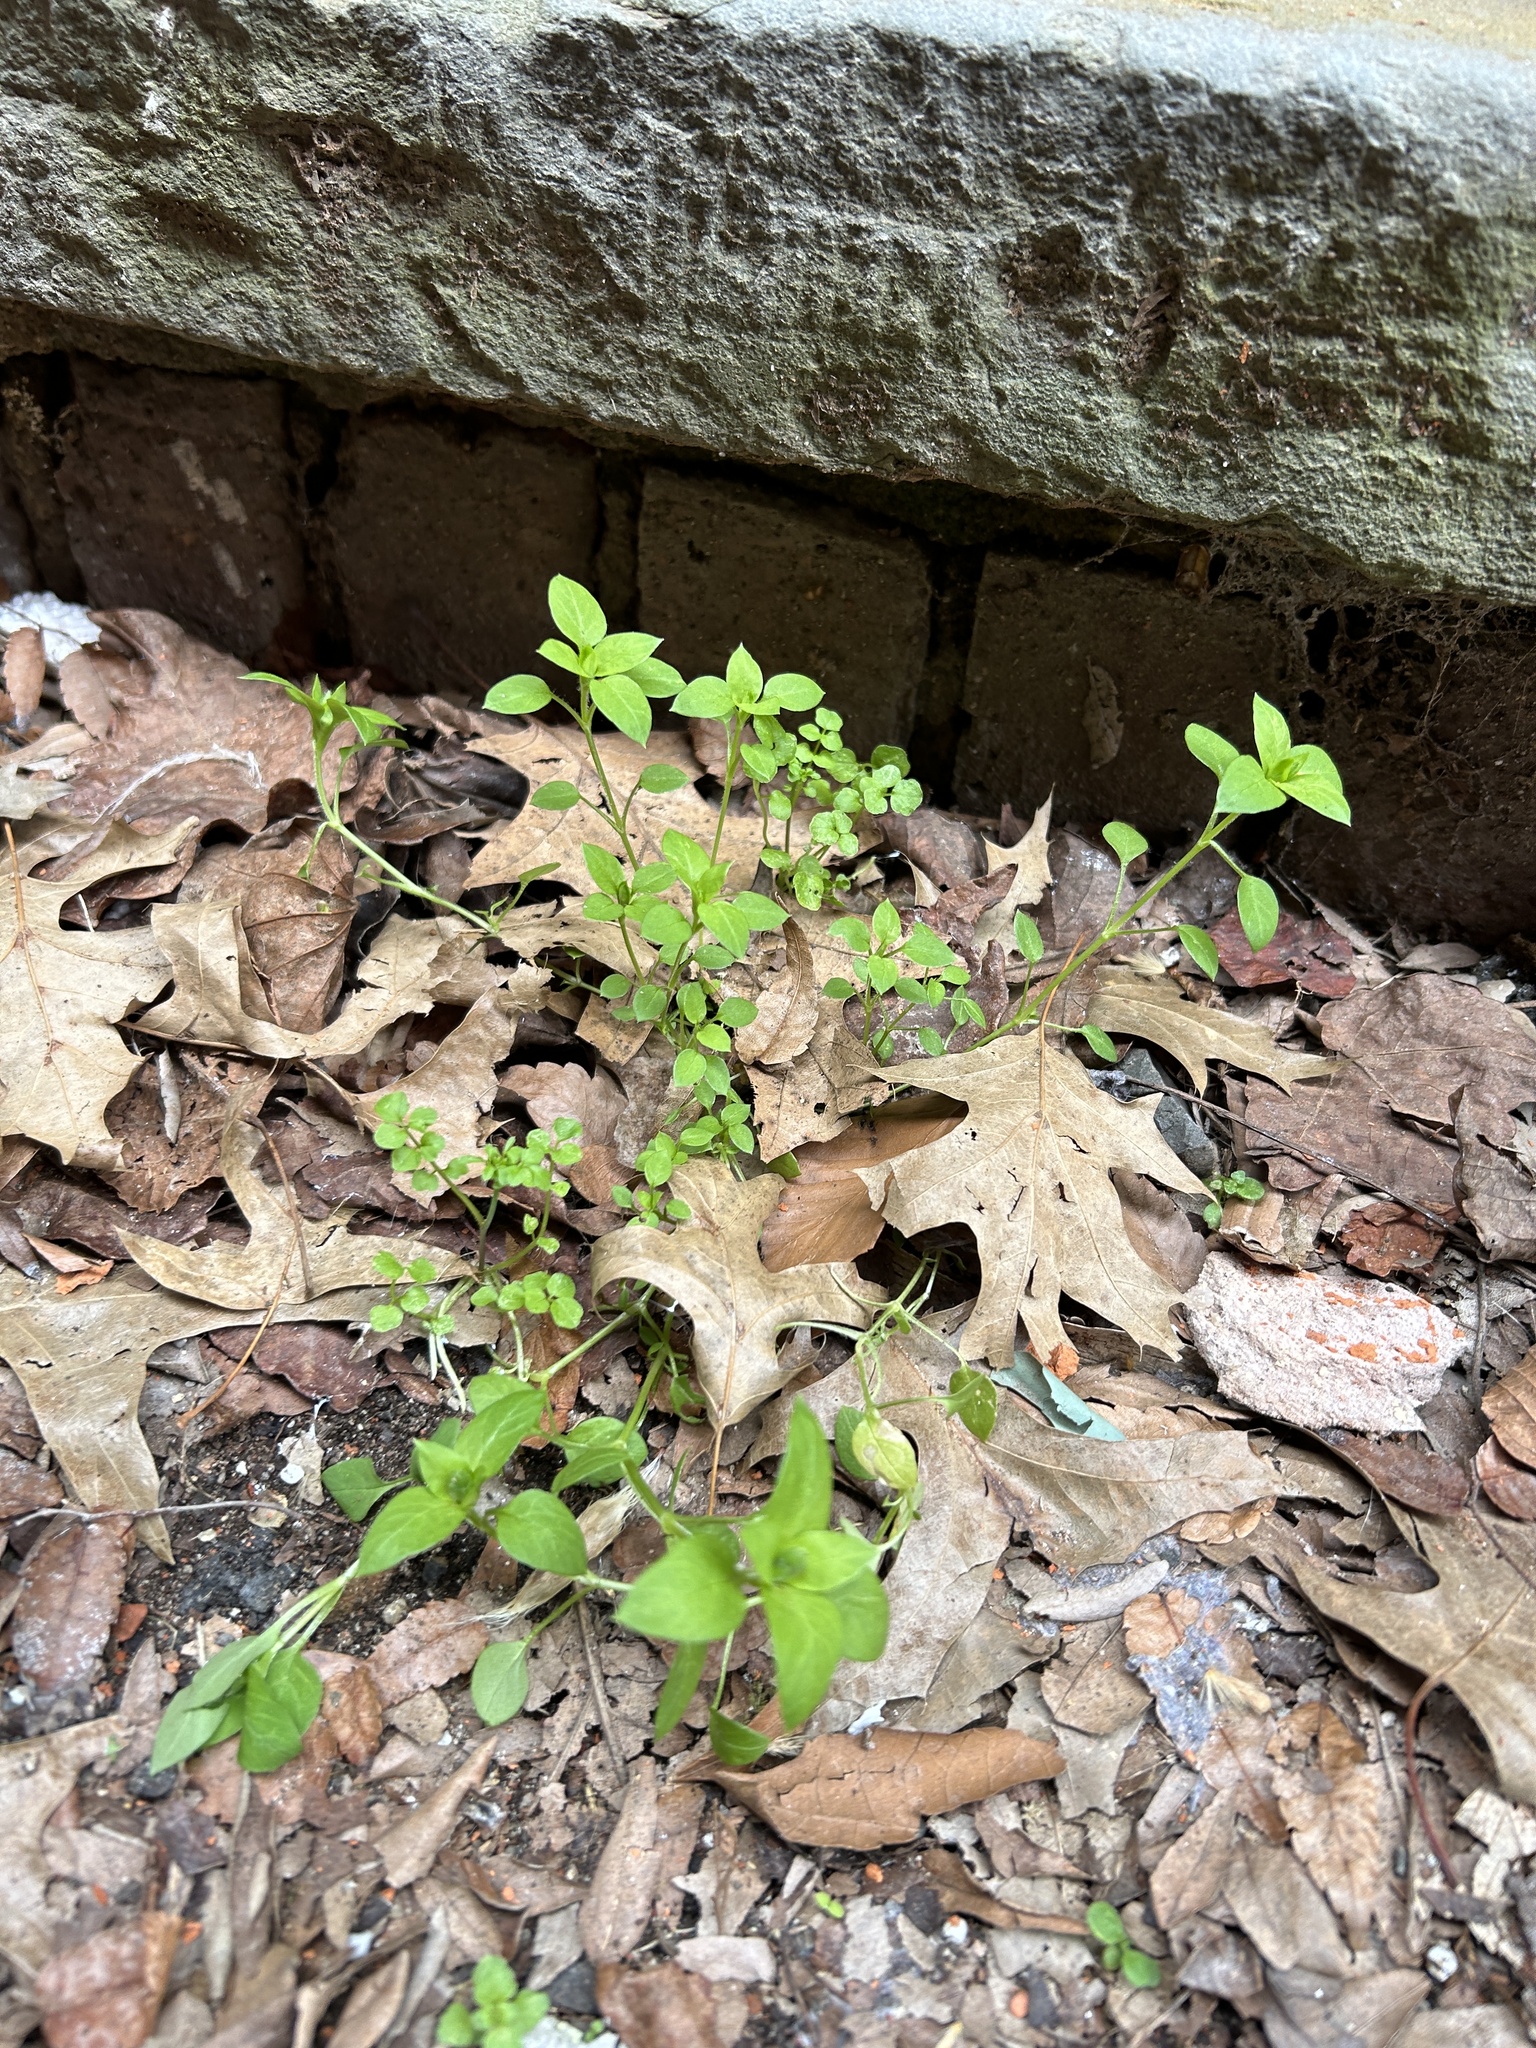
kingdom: Plantae
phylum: Tracheophyta
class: Magnoliopsida
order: Caryophyllales
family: Caryophyllaceae
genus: Stellaria
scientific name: Stellaria media
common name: Common chickweed
